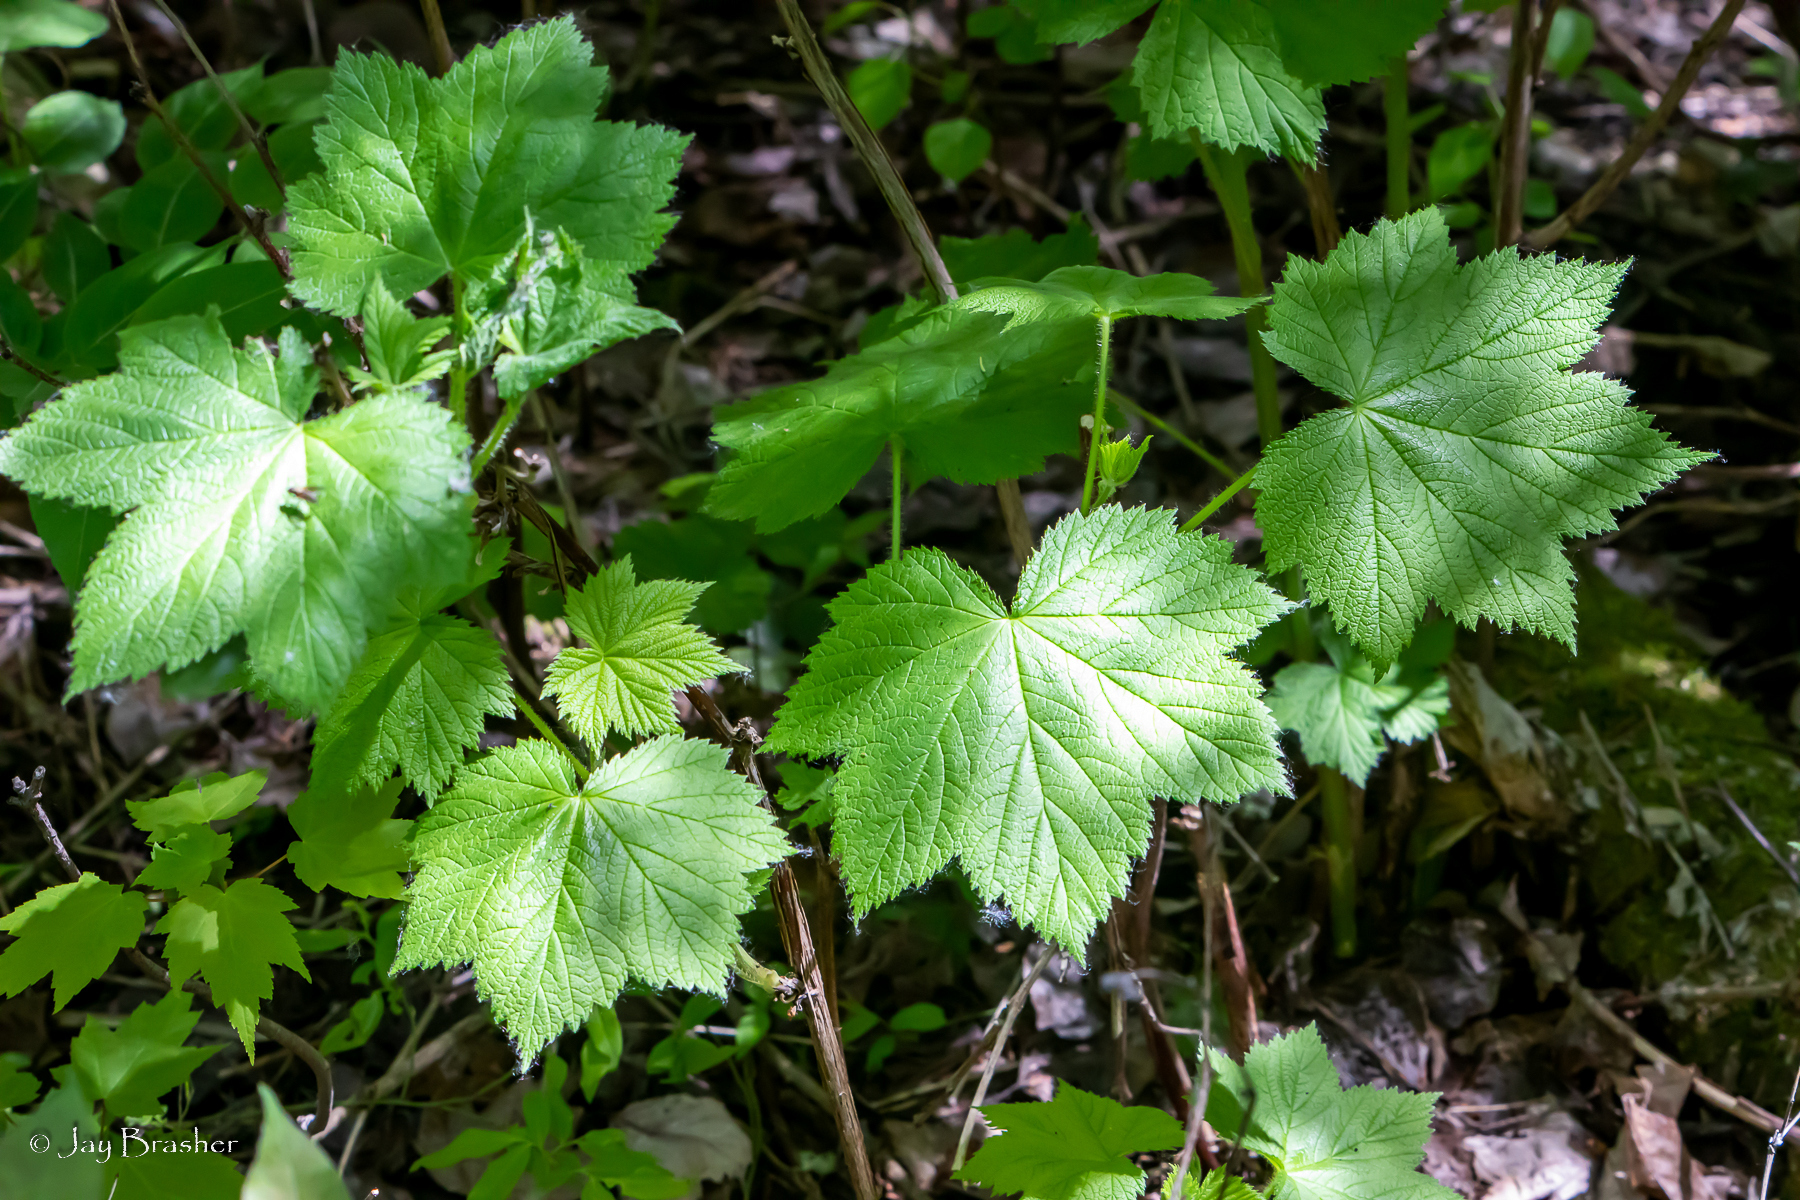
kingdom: Plantae
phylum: Tracheophyta
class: Magnoliopsida
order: Rosales
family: Rosaceae
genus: Rubus
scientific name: Rubus parviflorus
